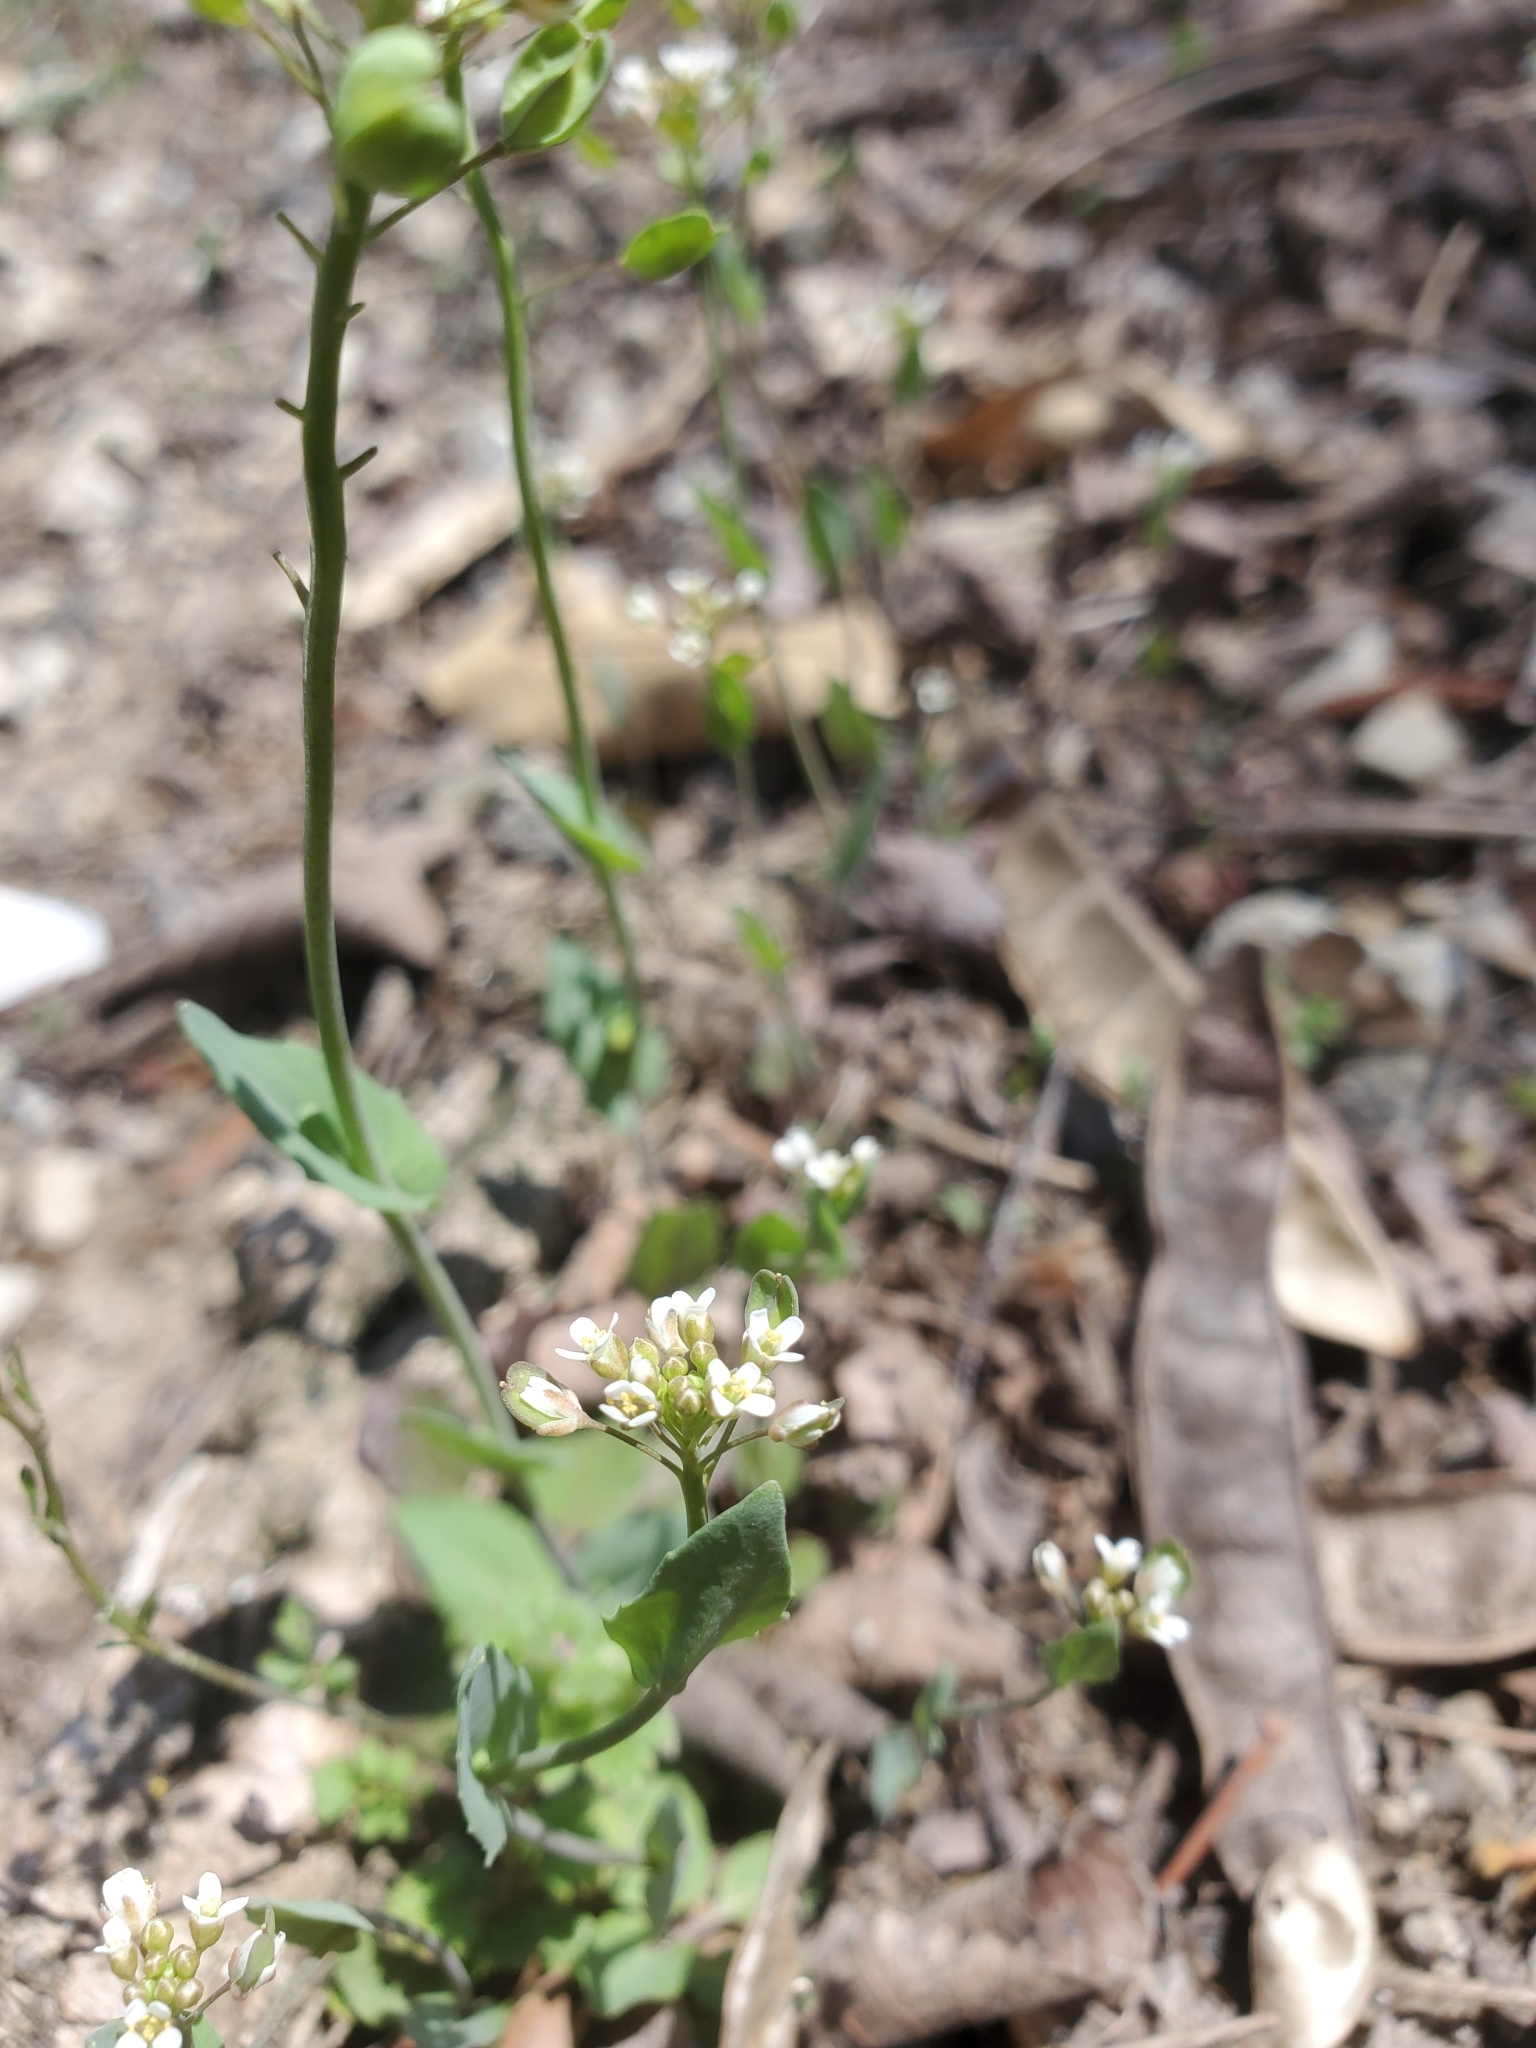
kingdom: Plantae
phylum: Tracheophyta
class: Magnoliopsida
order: Brassicales
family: Brassicaceae
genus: Noccaea
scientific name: Noccaea perfoliata
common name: Perfoliate pennycress
